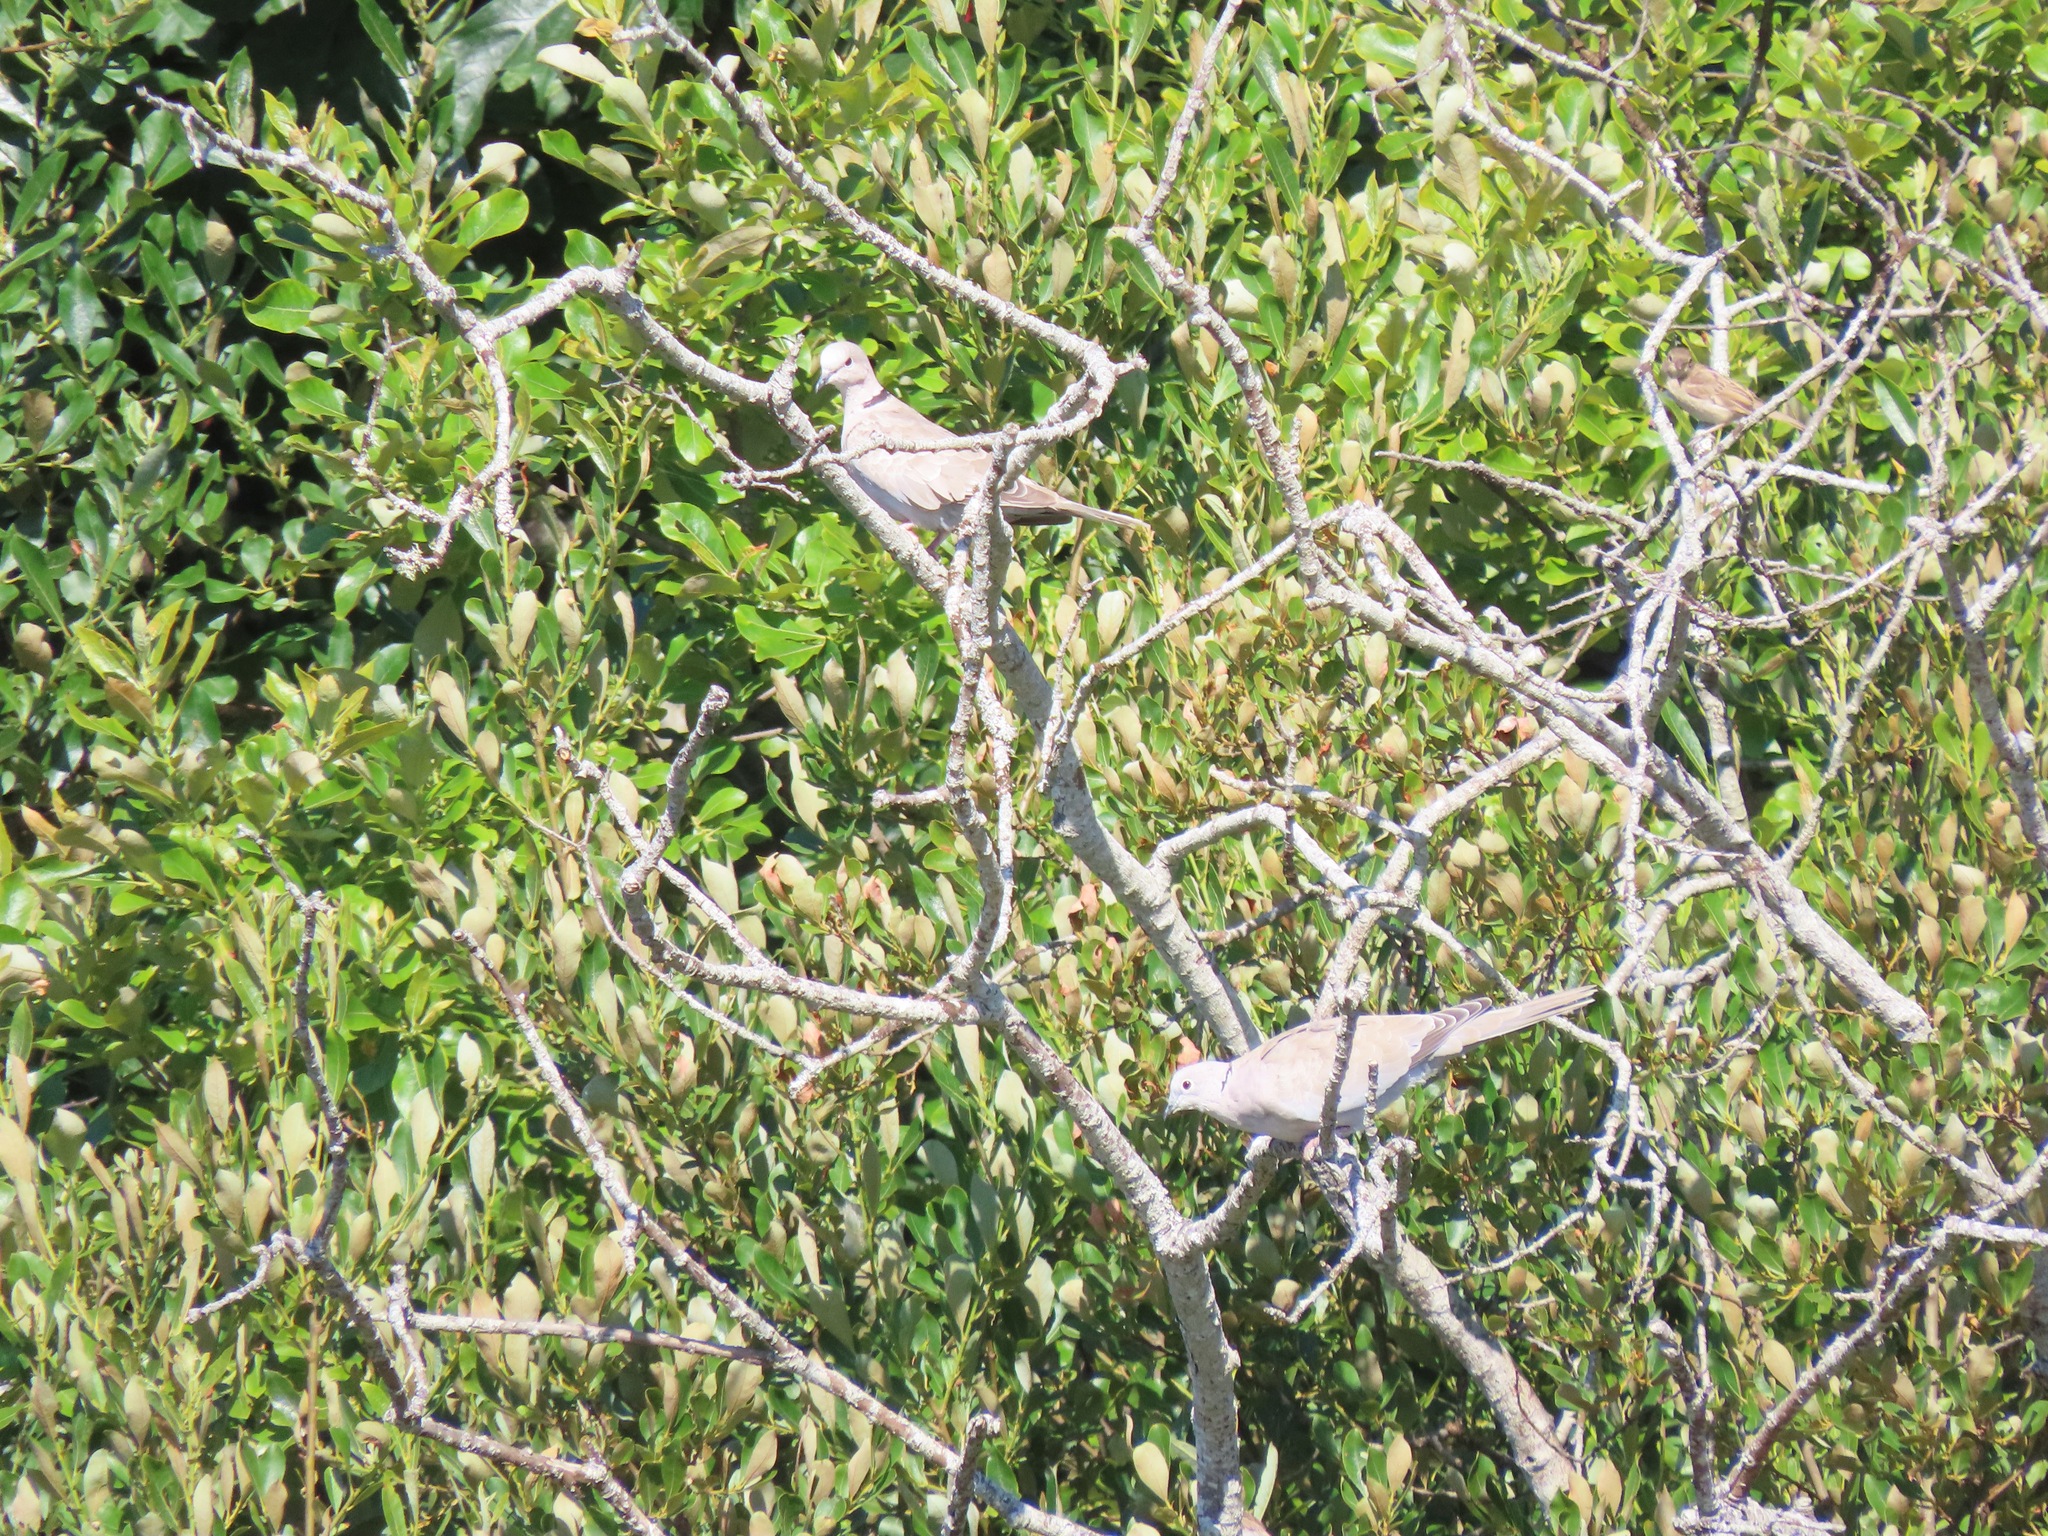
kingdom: Animalia
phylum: Chordata
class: Aves
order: Columbiformes
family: Columbidae
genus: Streptopelia
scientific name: Streptopelia decaocto
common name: Eurasian collared dove
